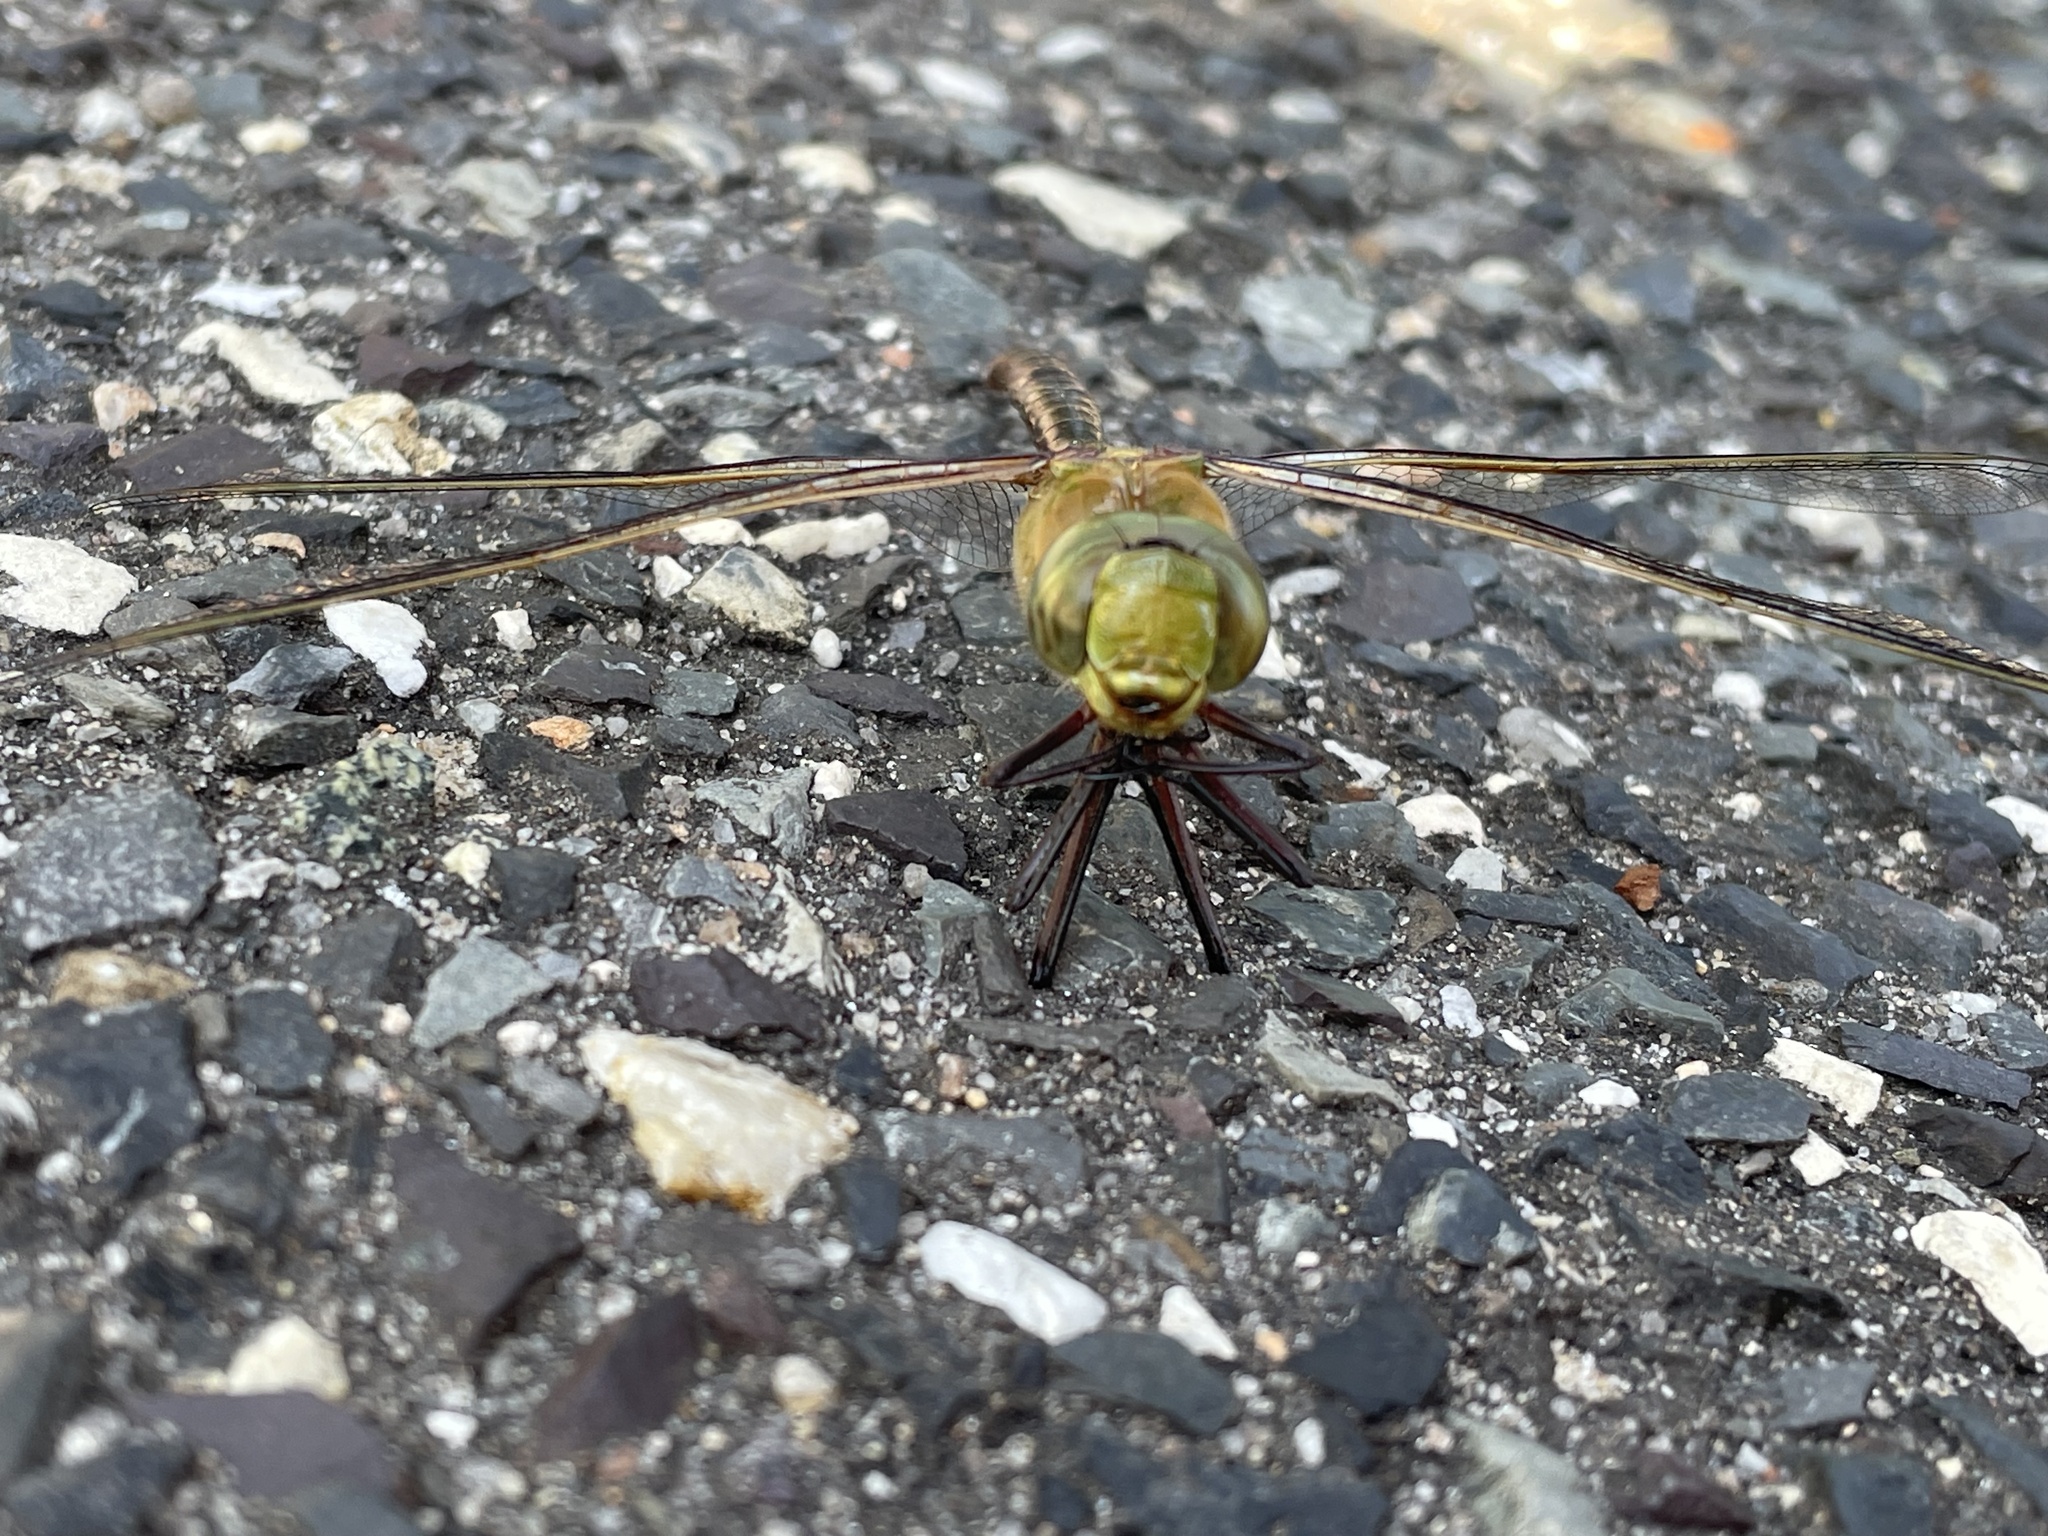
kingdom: Animalia
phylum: Arthropoda
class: Insecta
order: Odonata
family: Aeshnidae
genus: Anax
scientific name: Anax junius
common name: Common green darner
